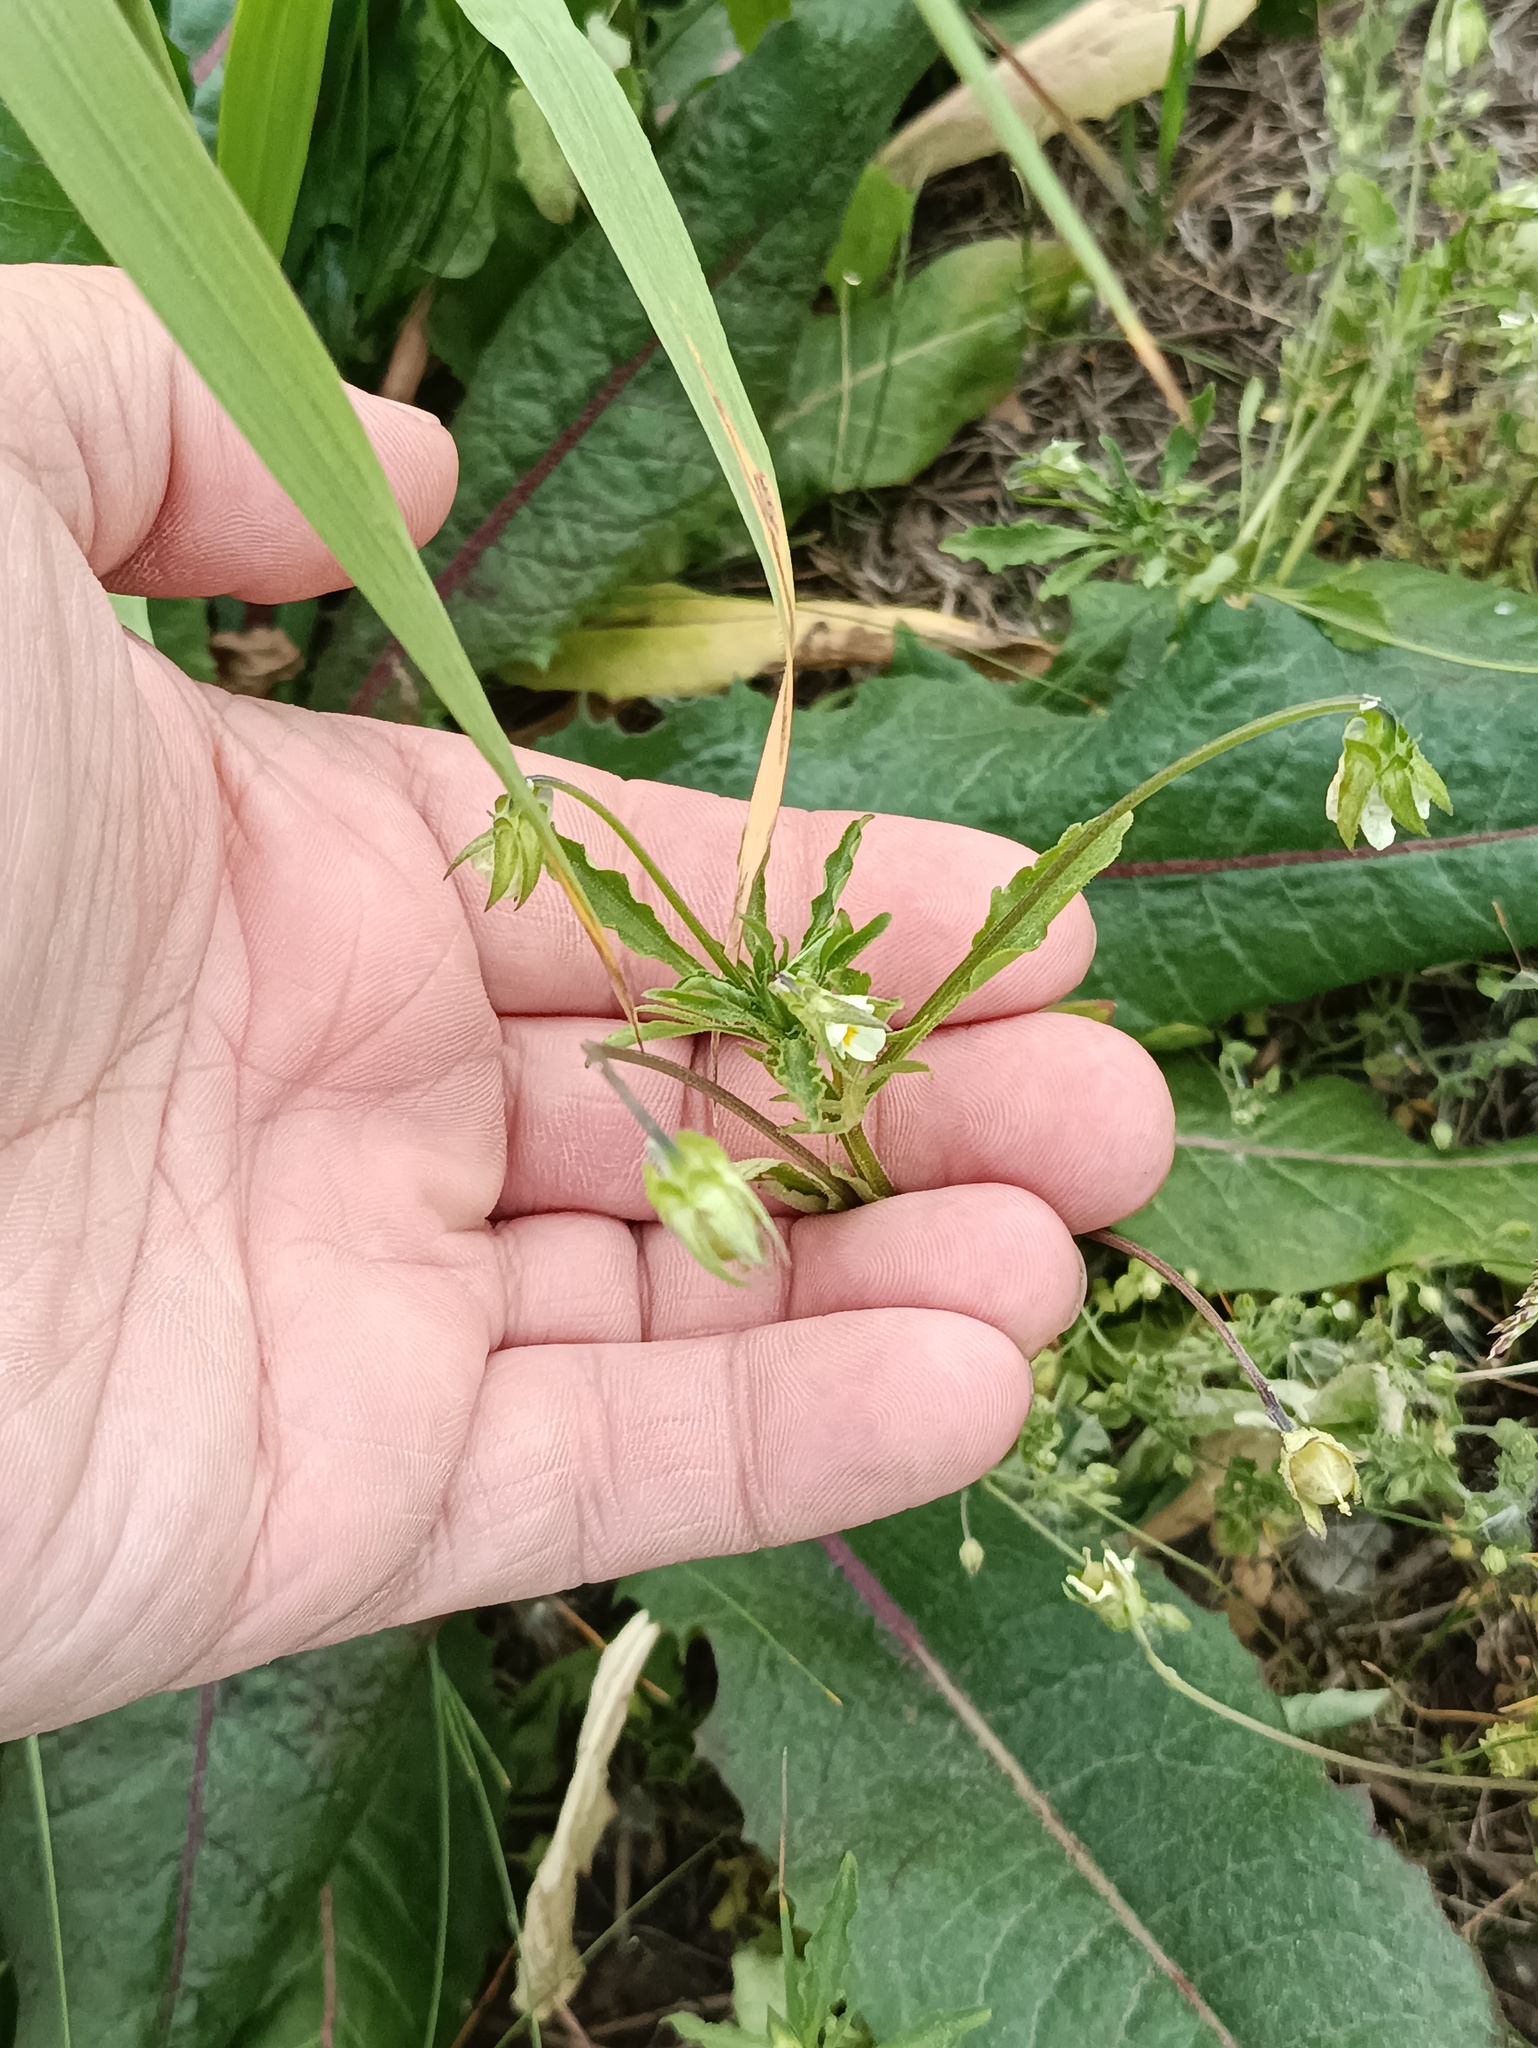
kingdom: Plantae
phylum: Tracheophyta
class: Magnoliopsida
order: Malpighiales
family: Violaceae
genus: Viola
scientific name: Viola arvensis
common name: Field pansy
